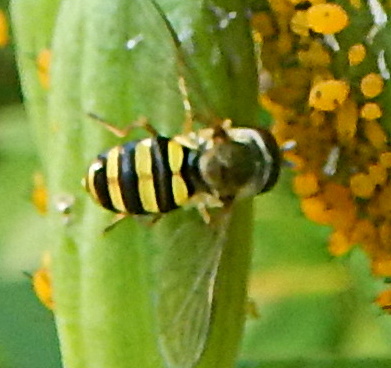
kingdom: Animalia
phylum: Arthropoda
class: Insecta
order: Diptera
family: Syrphidae
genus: Eupeodes
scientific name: Eupeodes
